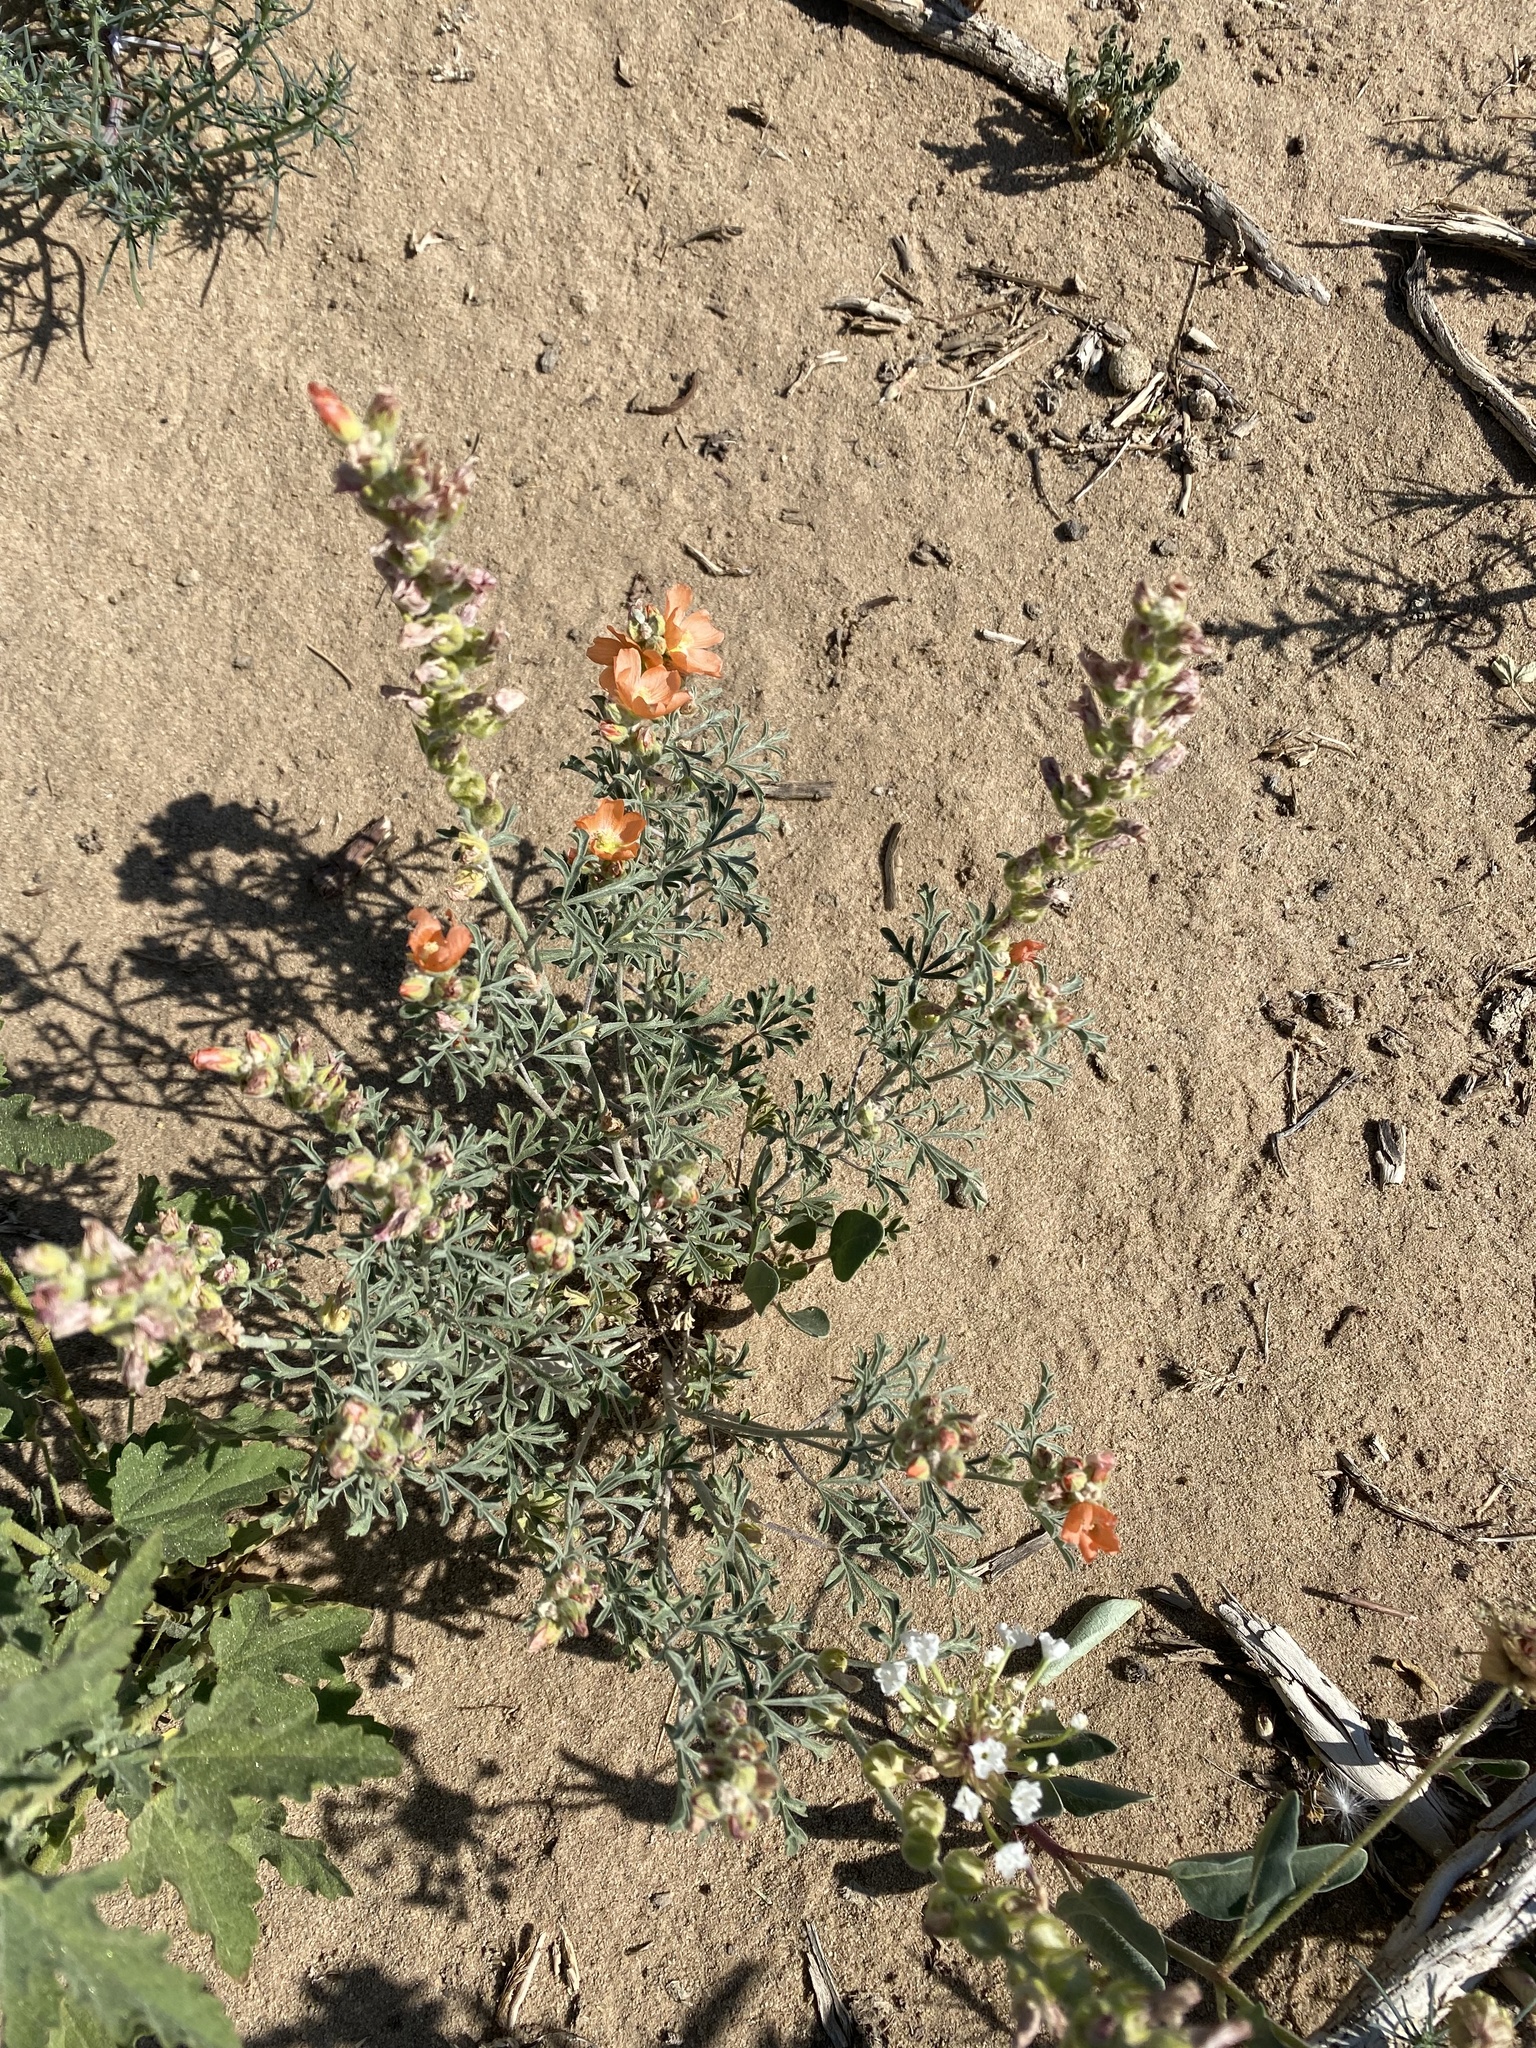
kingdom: Plantae
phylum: Tracheophyta
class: Magnoliopsida
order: Malvales
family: Malvaceae
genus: Sphaeralcea
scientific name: Sphaeralcea coccinea
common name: Moss-rose
